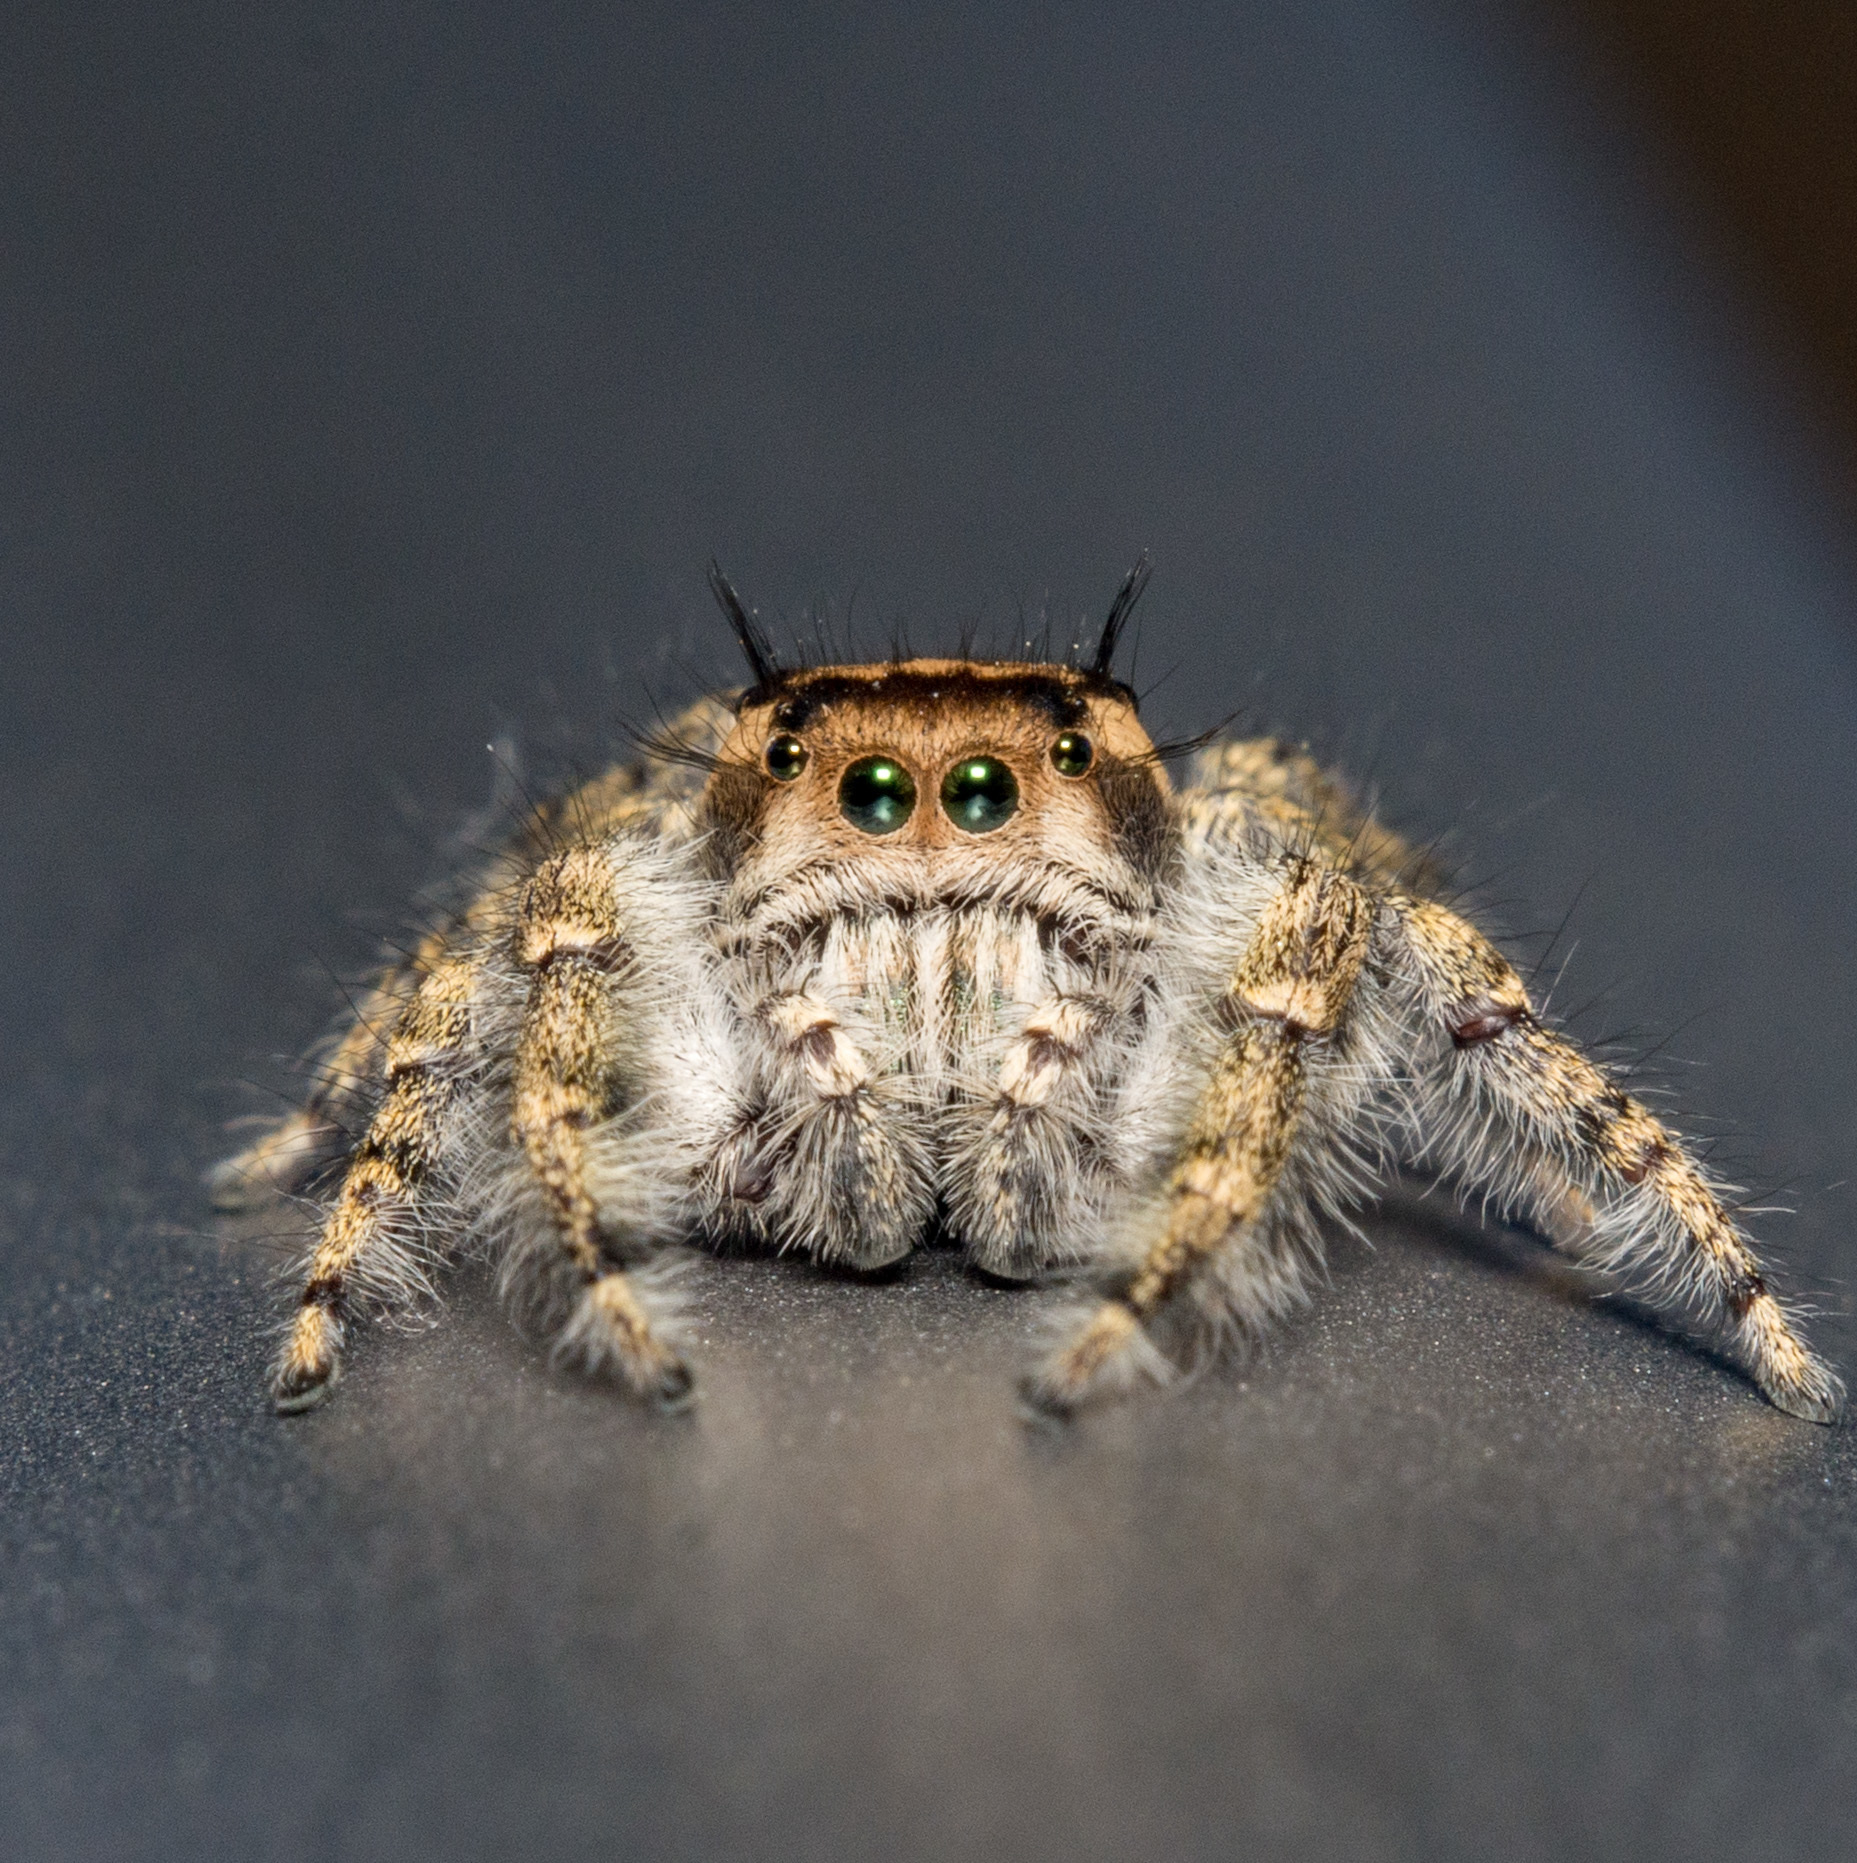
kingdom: Animalia
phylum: Arthropoda
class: Arachnida
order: Araneae
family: Salticidae
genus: Phidippus
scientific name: Phidippus pruinosus
